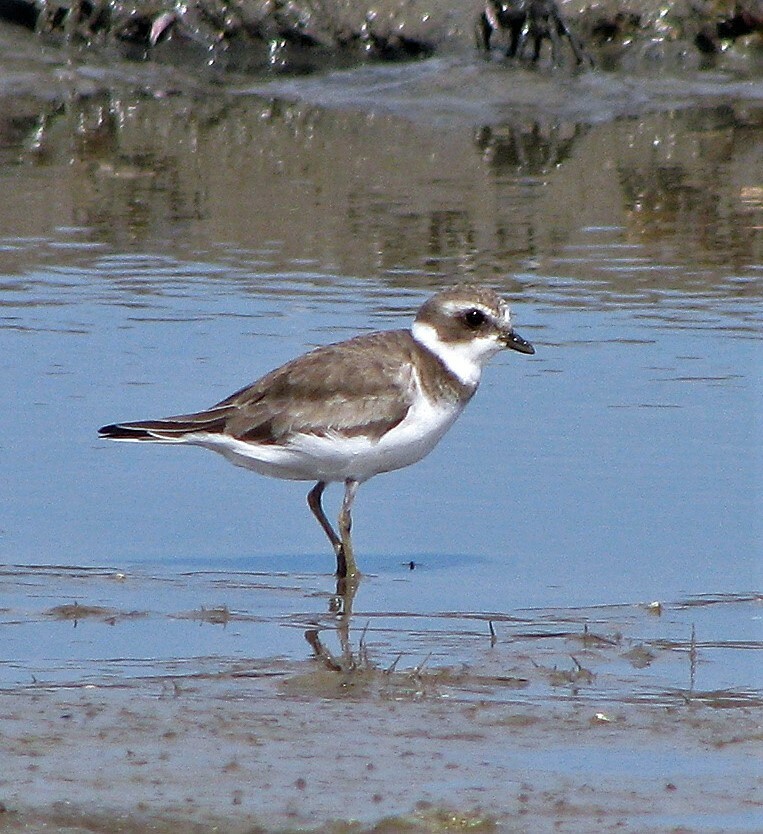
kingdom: Animalia
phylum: Chordata
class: Aves
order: Charadriiformes
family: Charadriidae
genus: Charadrius
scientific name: Charadrius semipalmatus
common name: Semipalmated plover
